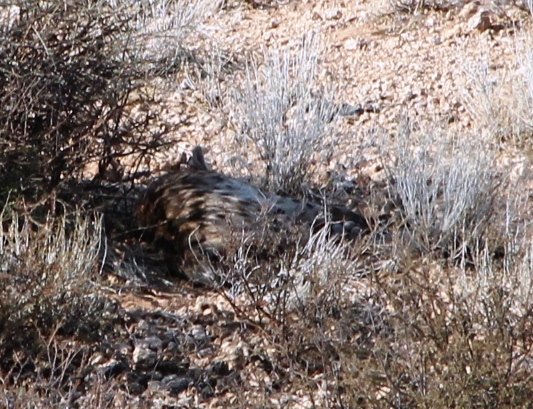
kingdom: Animalia
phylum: Chordata
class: Mammalia
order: Carnivora
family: Hyaenidae
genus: Crocuta
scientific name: Crocuta crocuta
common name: Spotted hyaena
